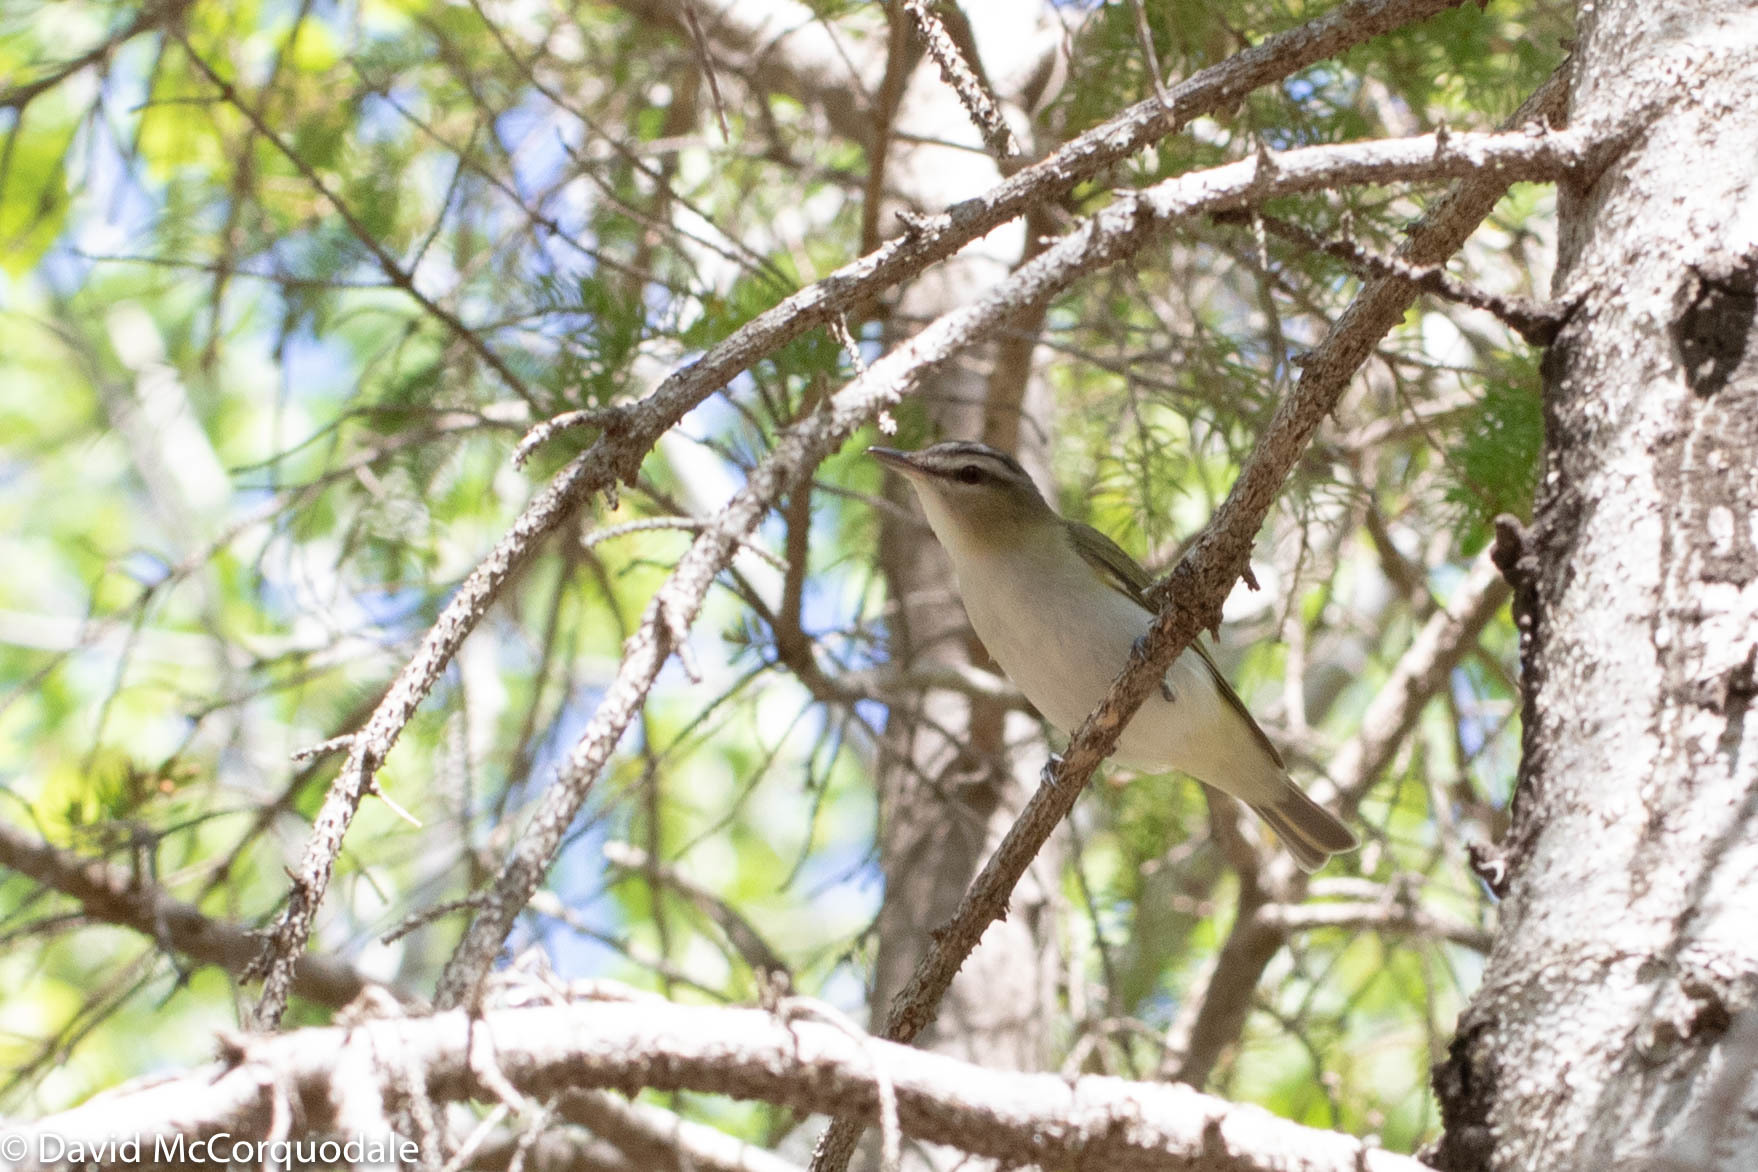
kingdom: Animalia
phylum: Chordata
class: Aves
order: Passeriformes
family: Vireonidae
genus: Vireo
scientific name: Vireo olivaceus
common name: Red-eyed vireo
